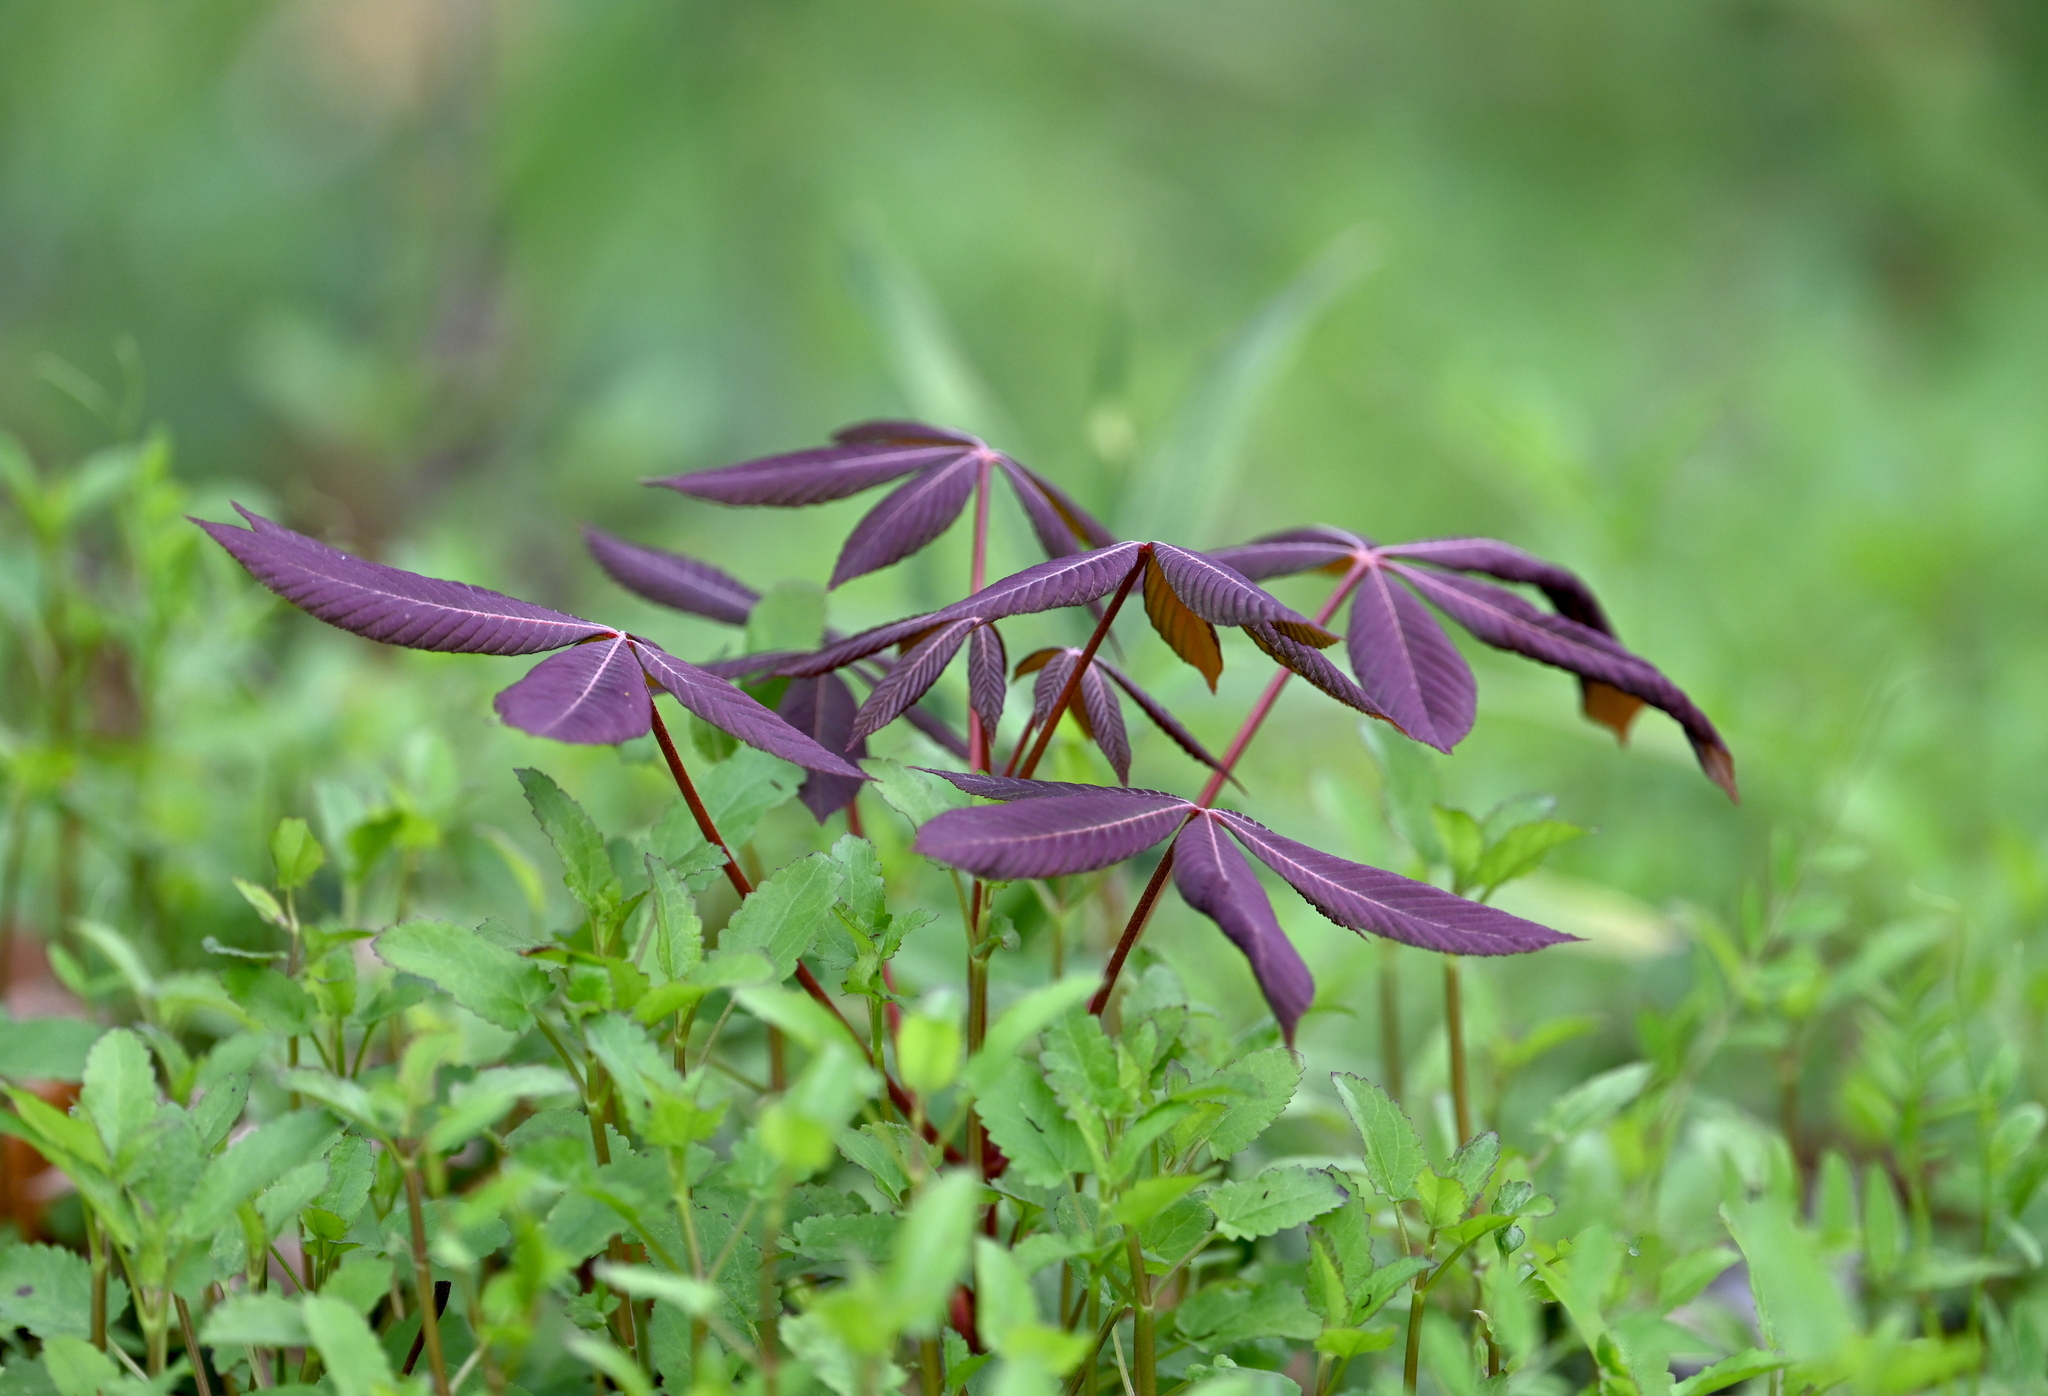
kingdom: Plantae
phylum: Tracheophyta
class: Magnoliopsida
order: Sapindales
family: Sapindaceae
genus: Aesculus
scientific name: Aesculus pavia
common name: Red buckeye
